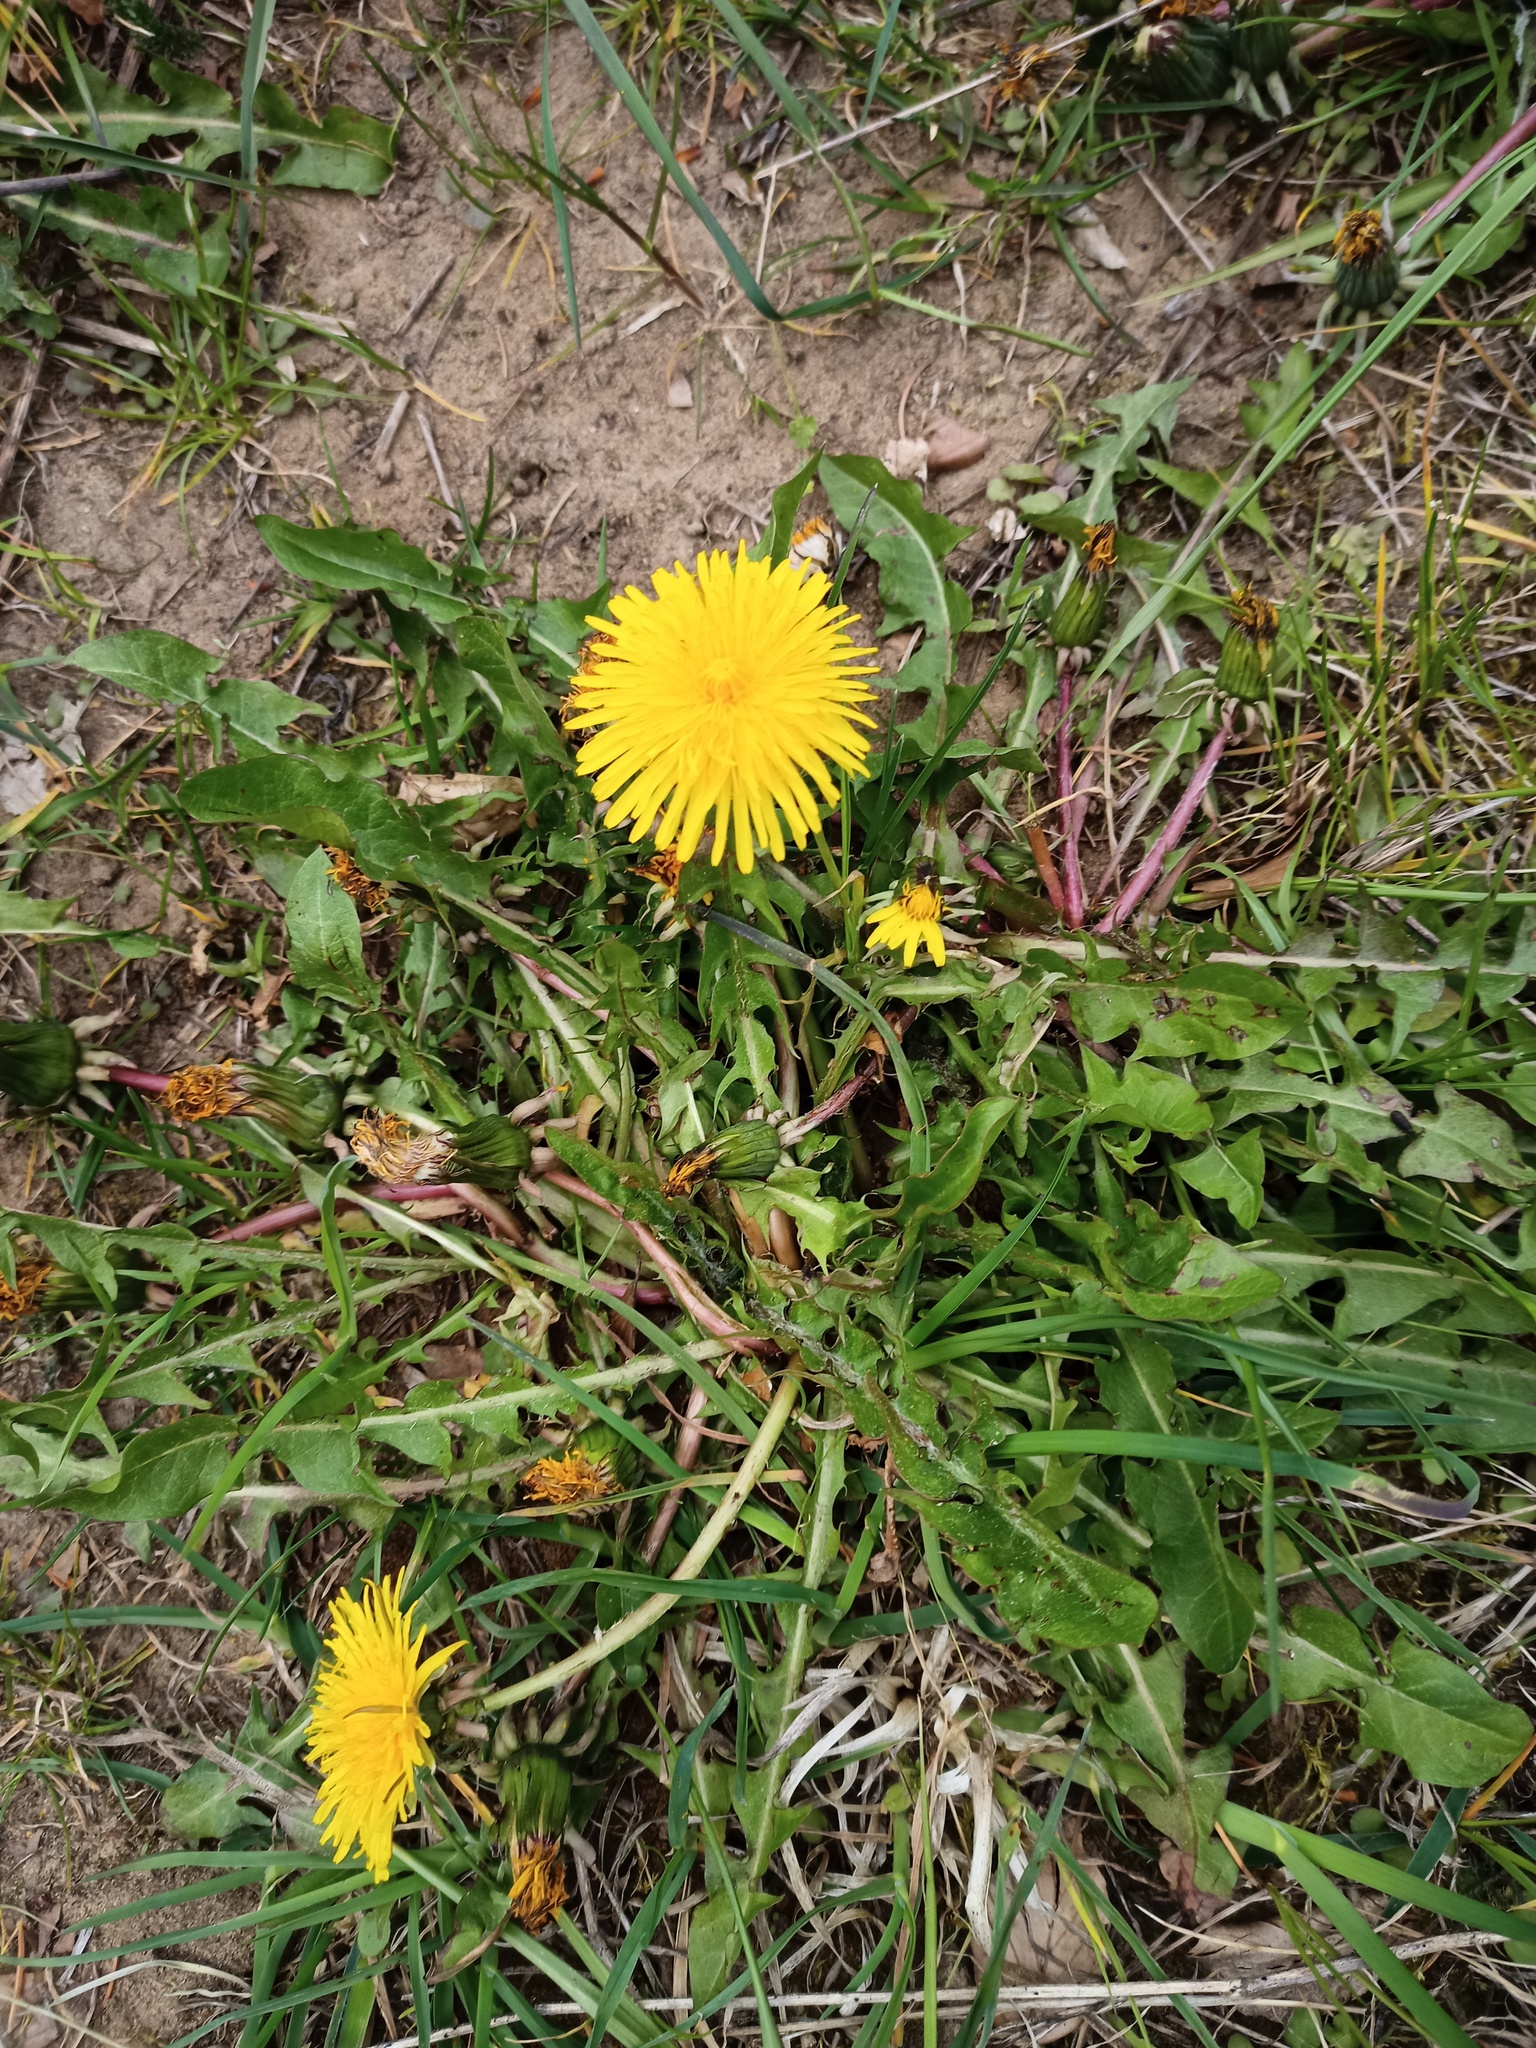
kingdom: Plantae
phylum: Tracheophyta
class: Magnoliopsida
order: Asterales
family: Asteraceae
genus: Taraxacum
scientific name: Taraxacum officinale
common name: Common dandelion
